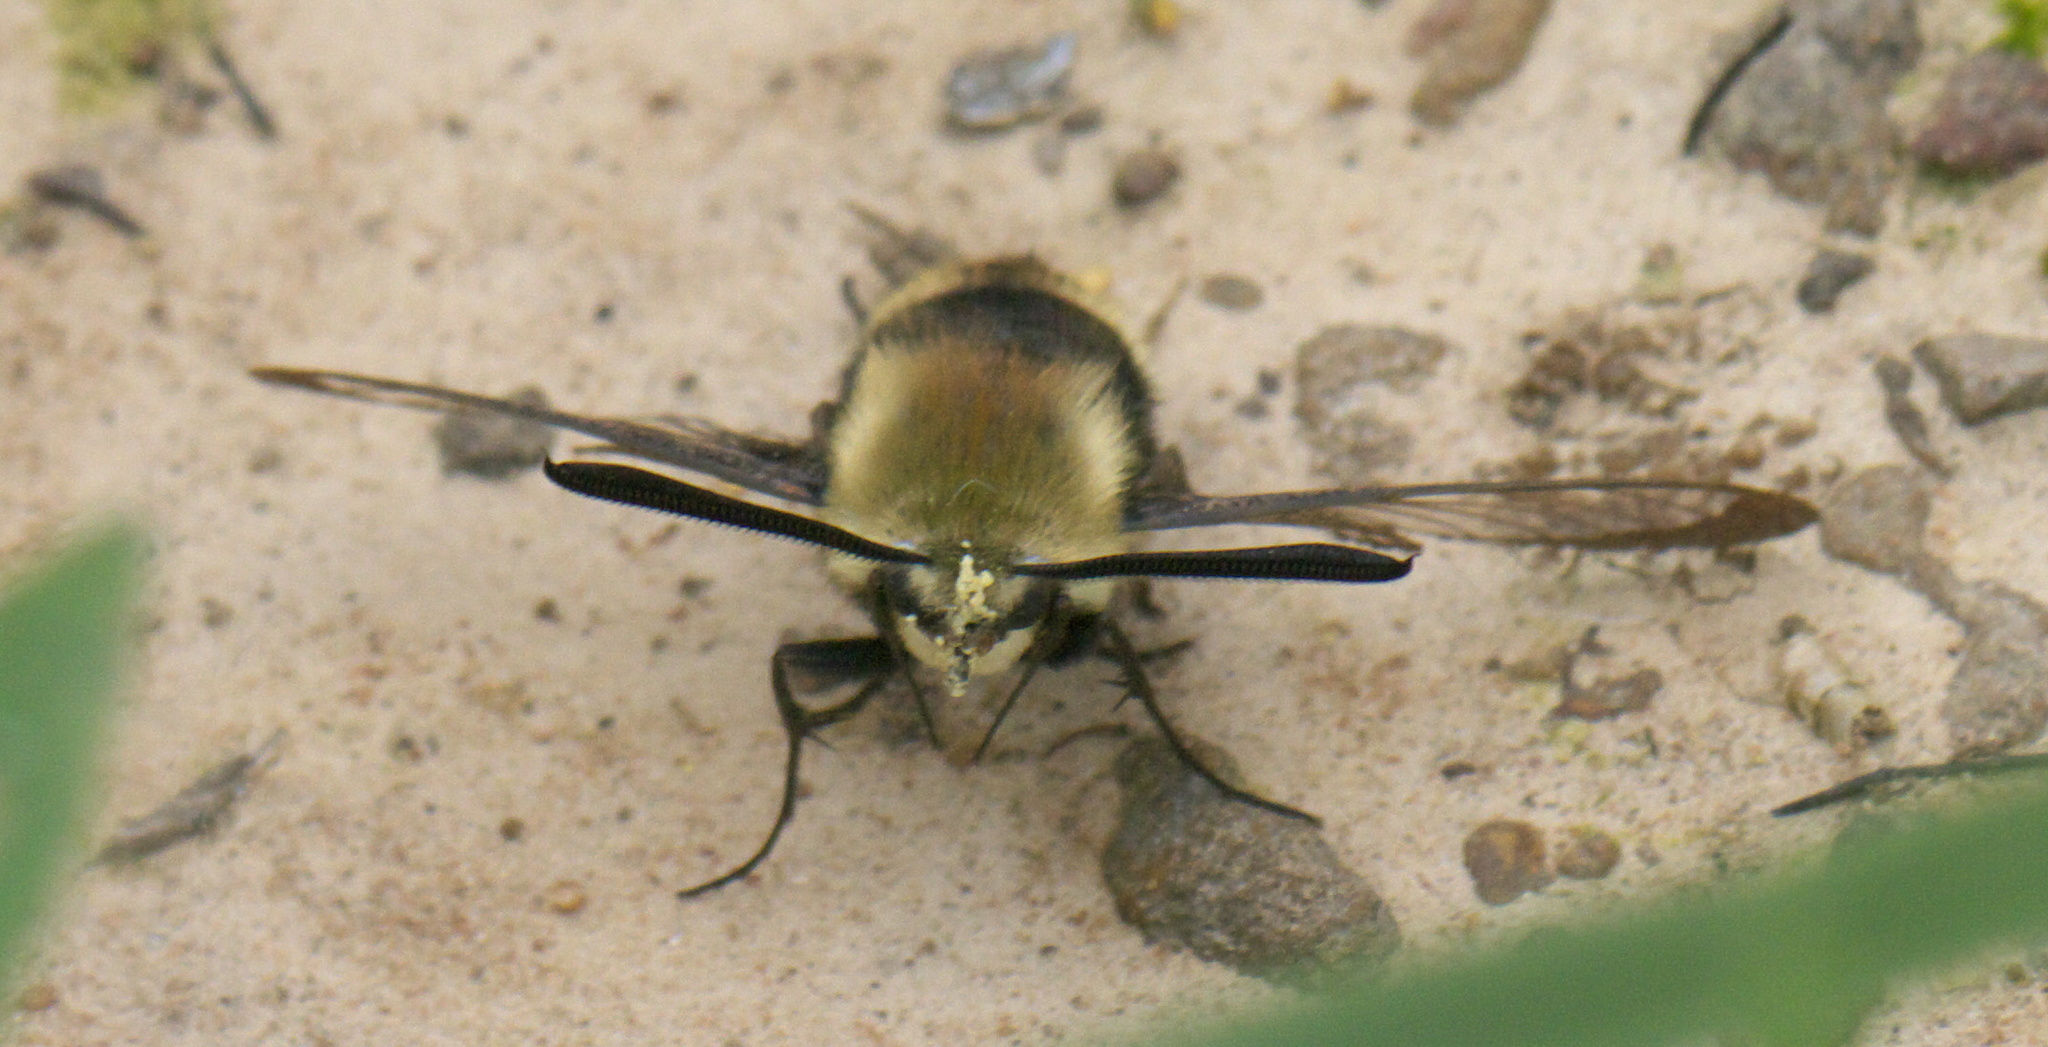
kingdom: Animalia
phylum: Arthropoda
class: Insecta
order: Lepidoptera
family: Sphingidae
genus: Hemaris
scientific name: Hemaris diffinis
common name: Bumblebee moth
